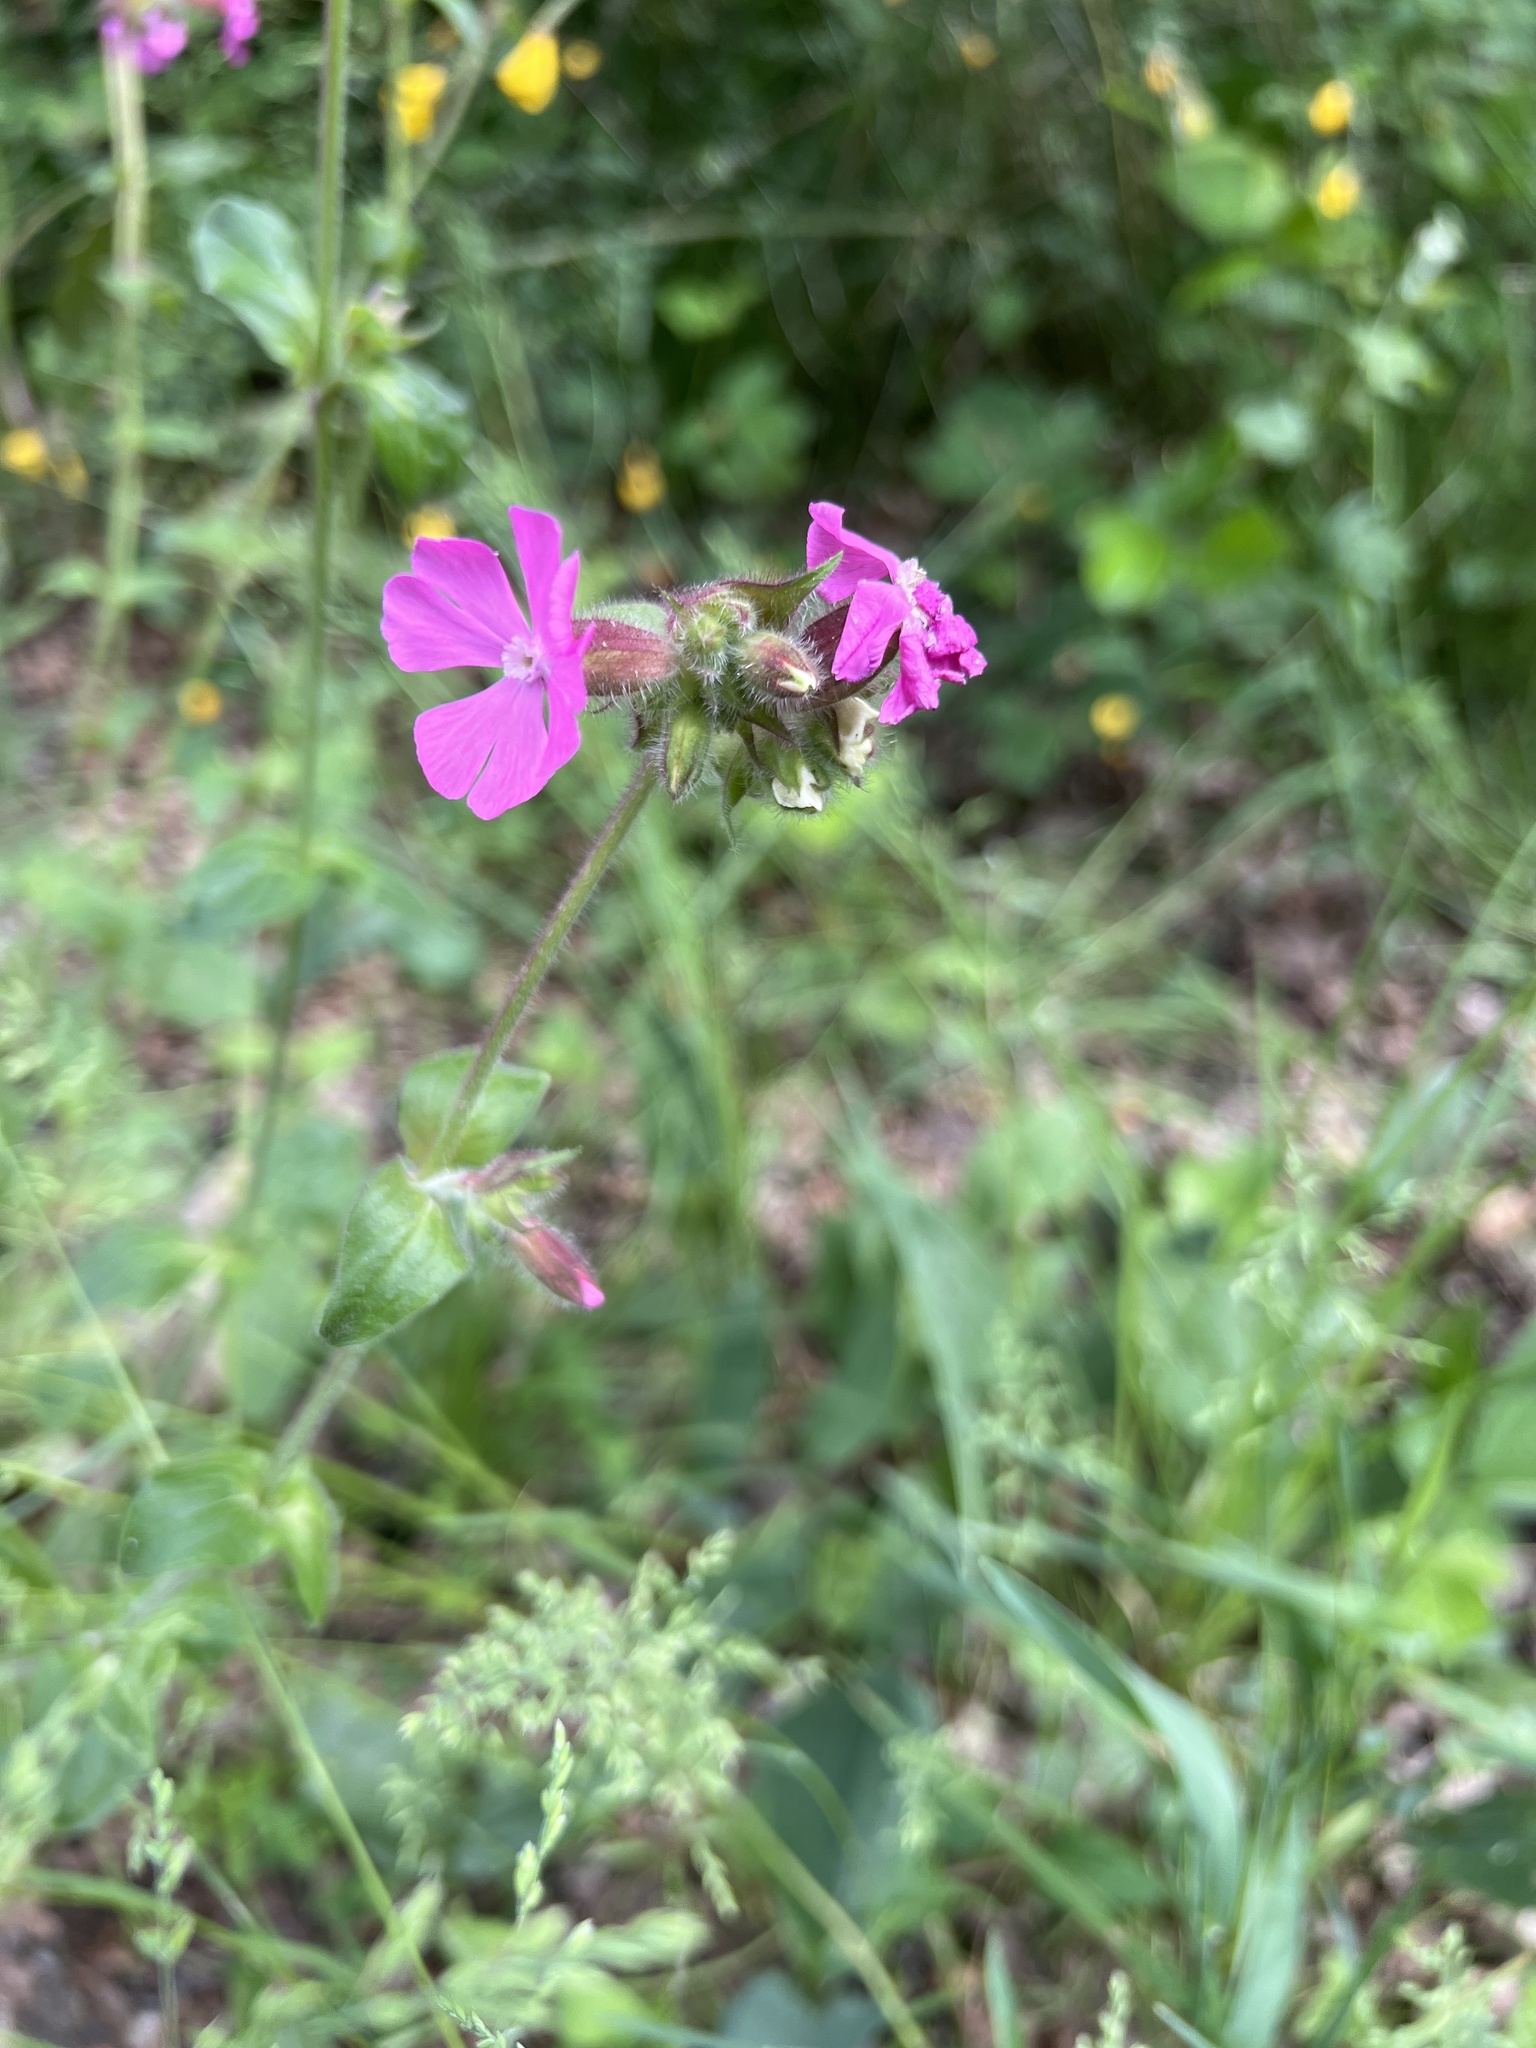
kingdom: Plantae
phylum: Tracheophyta
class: Magnoliopsida
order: Caryophyllales
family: Caryophyllaceae
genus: Silene
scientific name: Silene dioica
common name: Red campion
